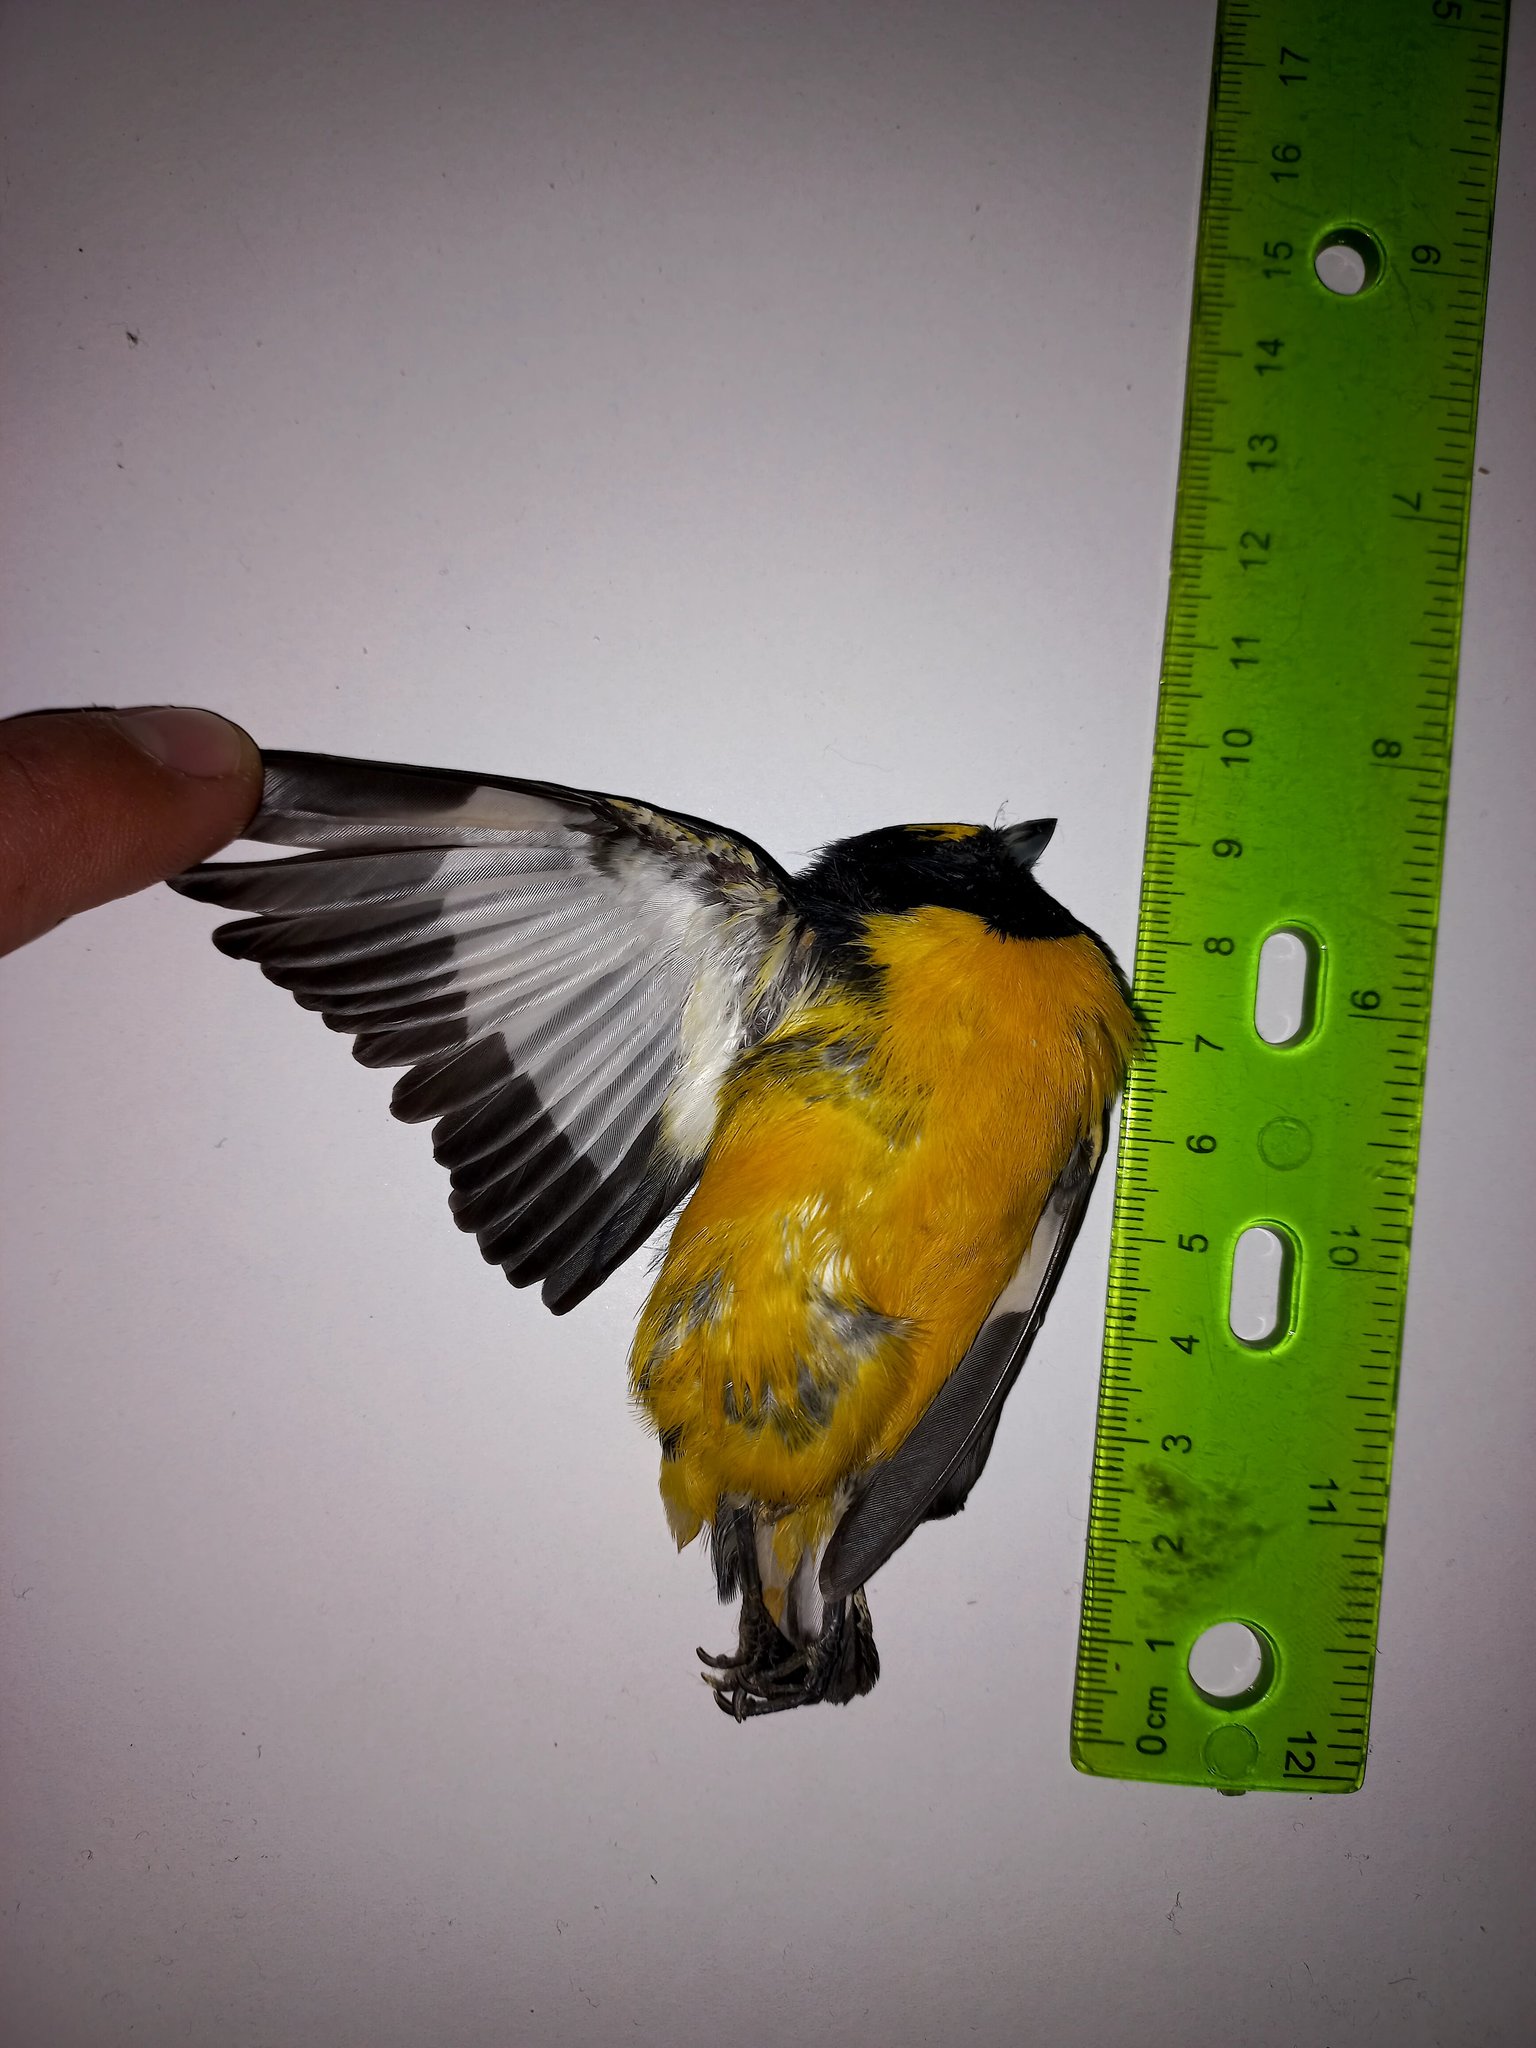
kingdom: Animalia
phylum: Chordata
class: Aves
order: Passeriformes
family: Fringillidae
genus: Euphonia
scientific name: Euphonia chlorotica
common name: Purple-throated euphonia
